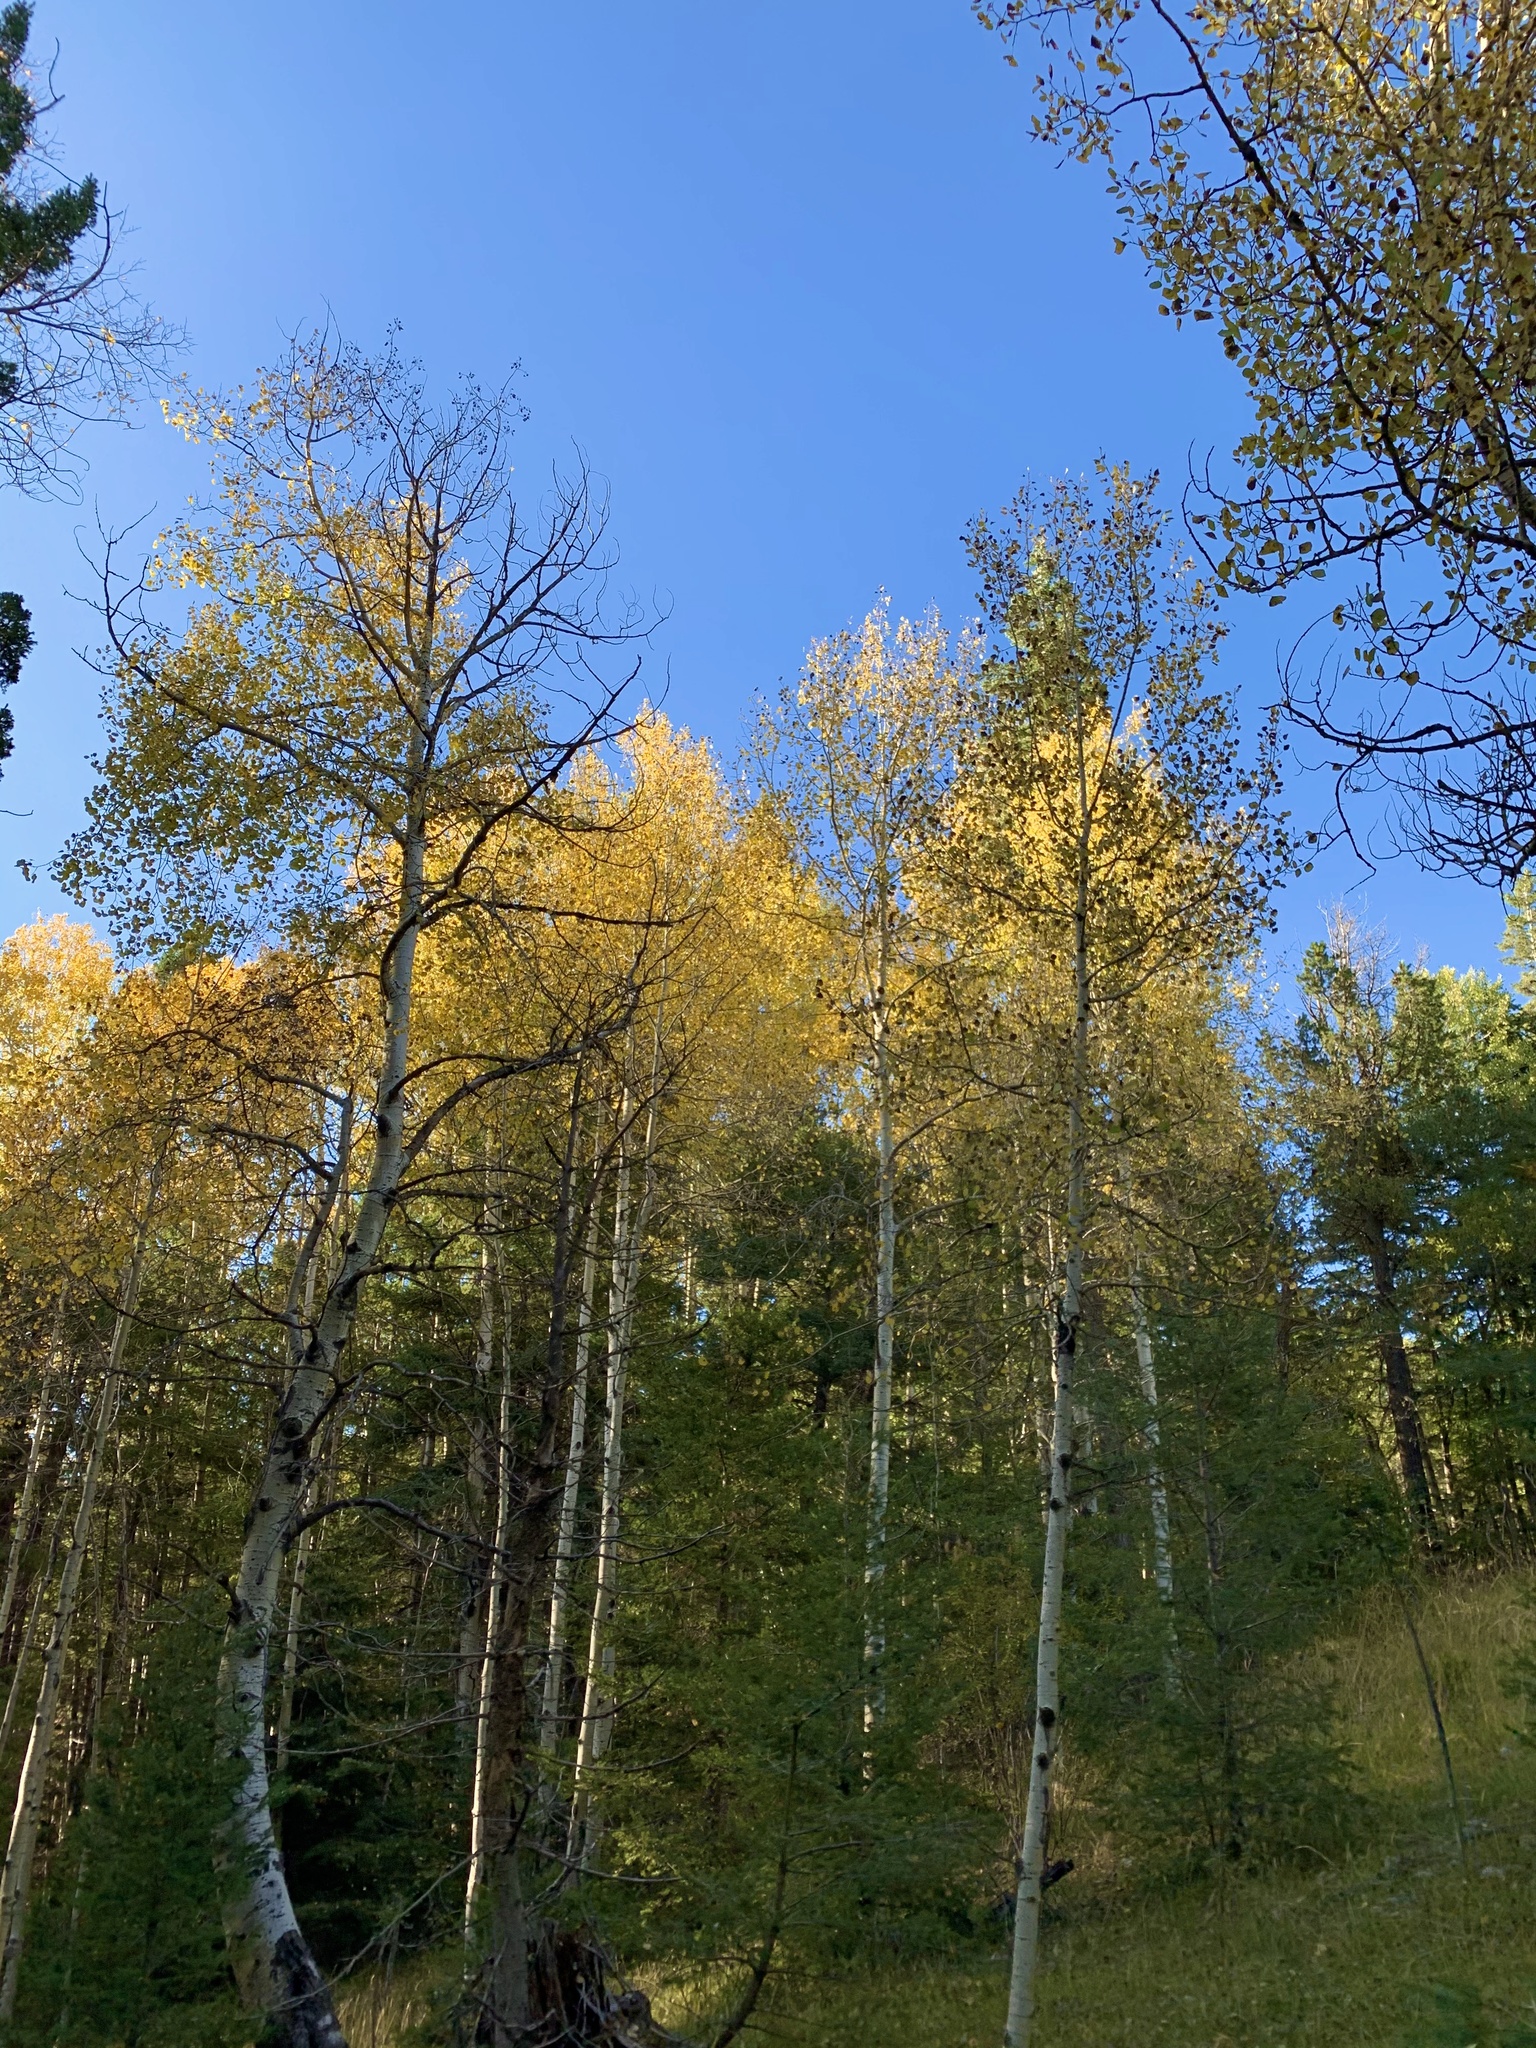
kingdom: Plantae
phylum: Tracheophyta
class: Magnoliopsida
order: Malpighiales
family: Salicaceae
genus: Populus
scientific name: Populus tremuloides
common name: Quaking aspen
